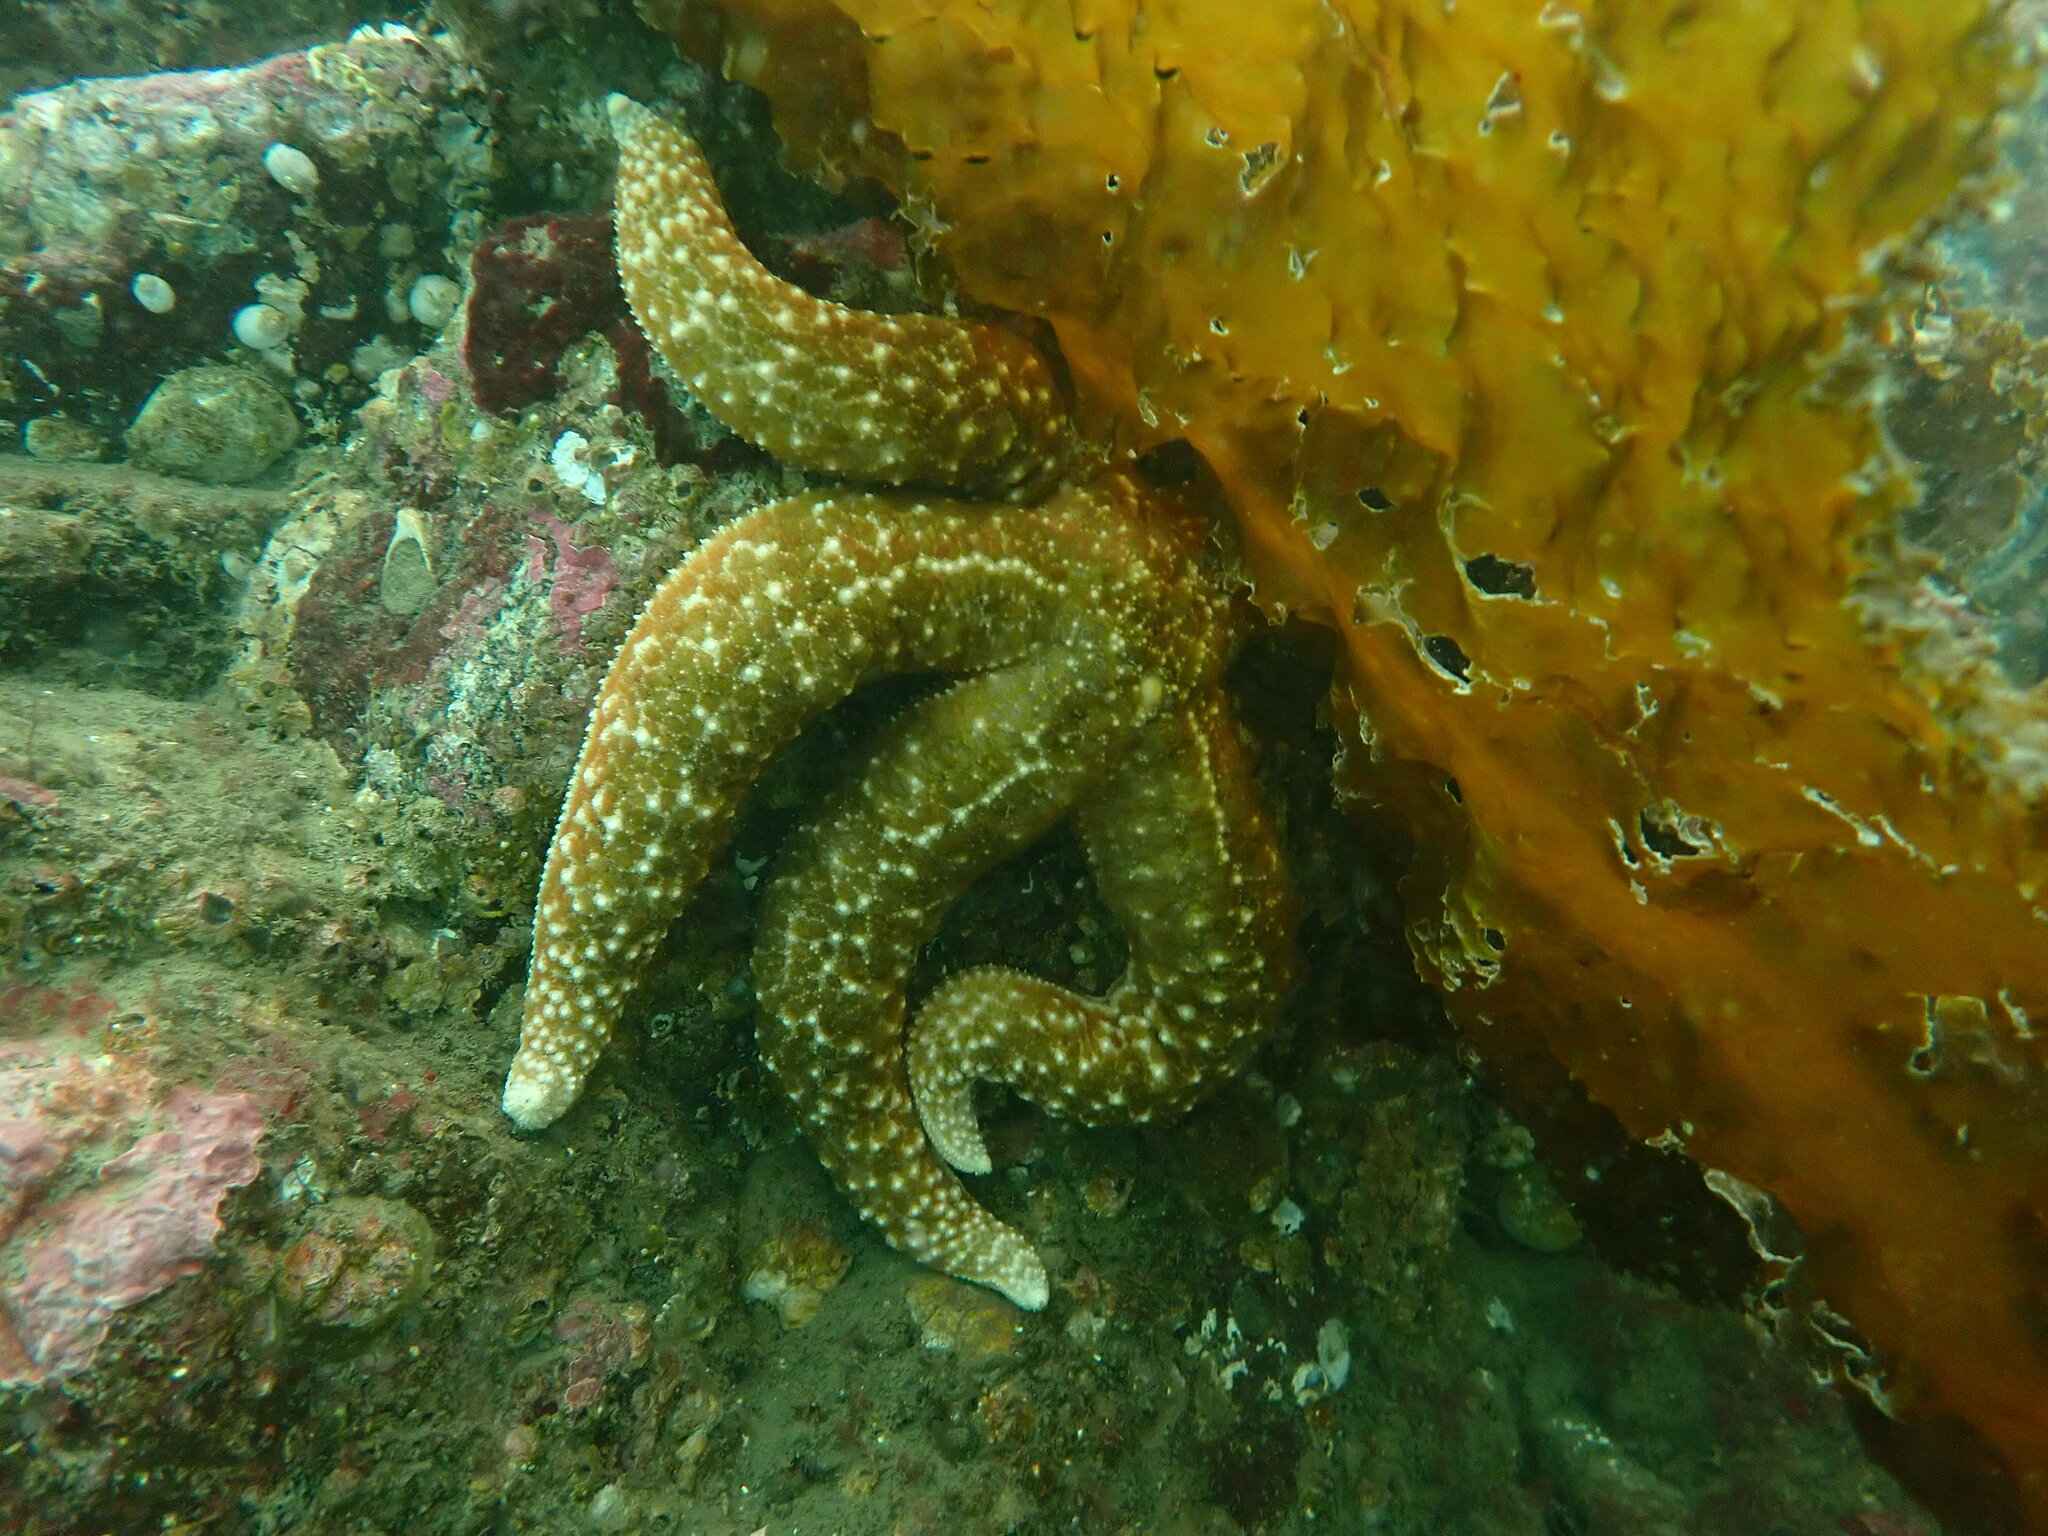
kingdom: Animalia
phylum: Echinodermata
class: Asteroidea
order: Forcipulatida
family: Asteriidae
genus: Evasterias
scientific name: Evasterias troschelii
